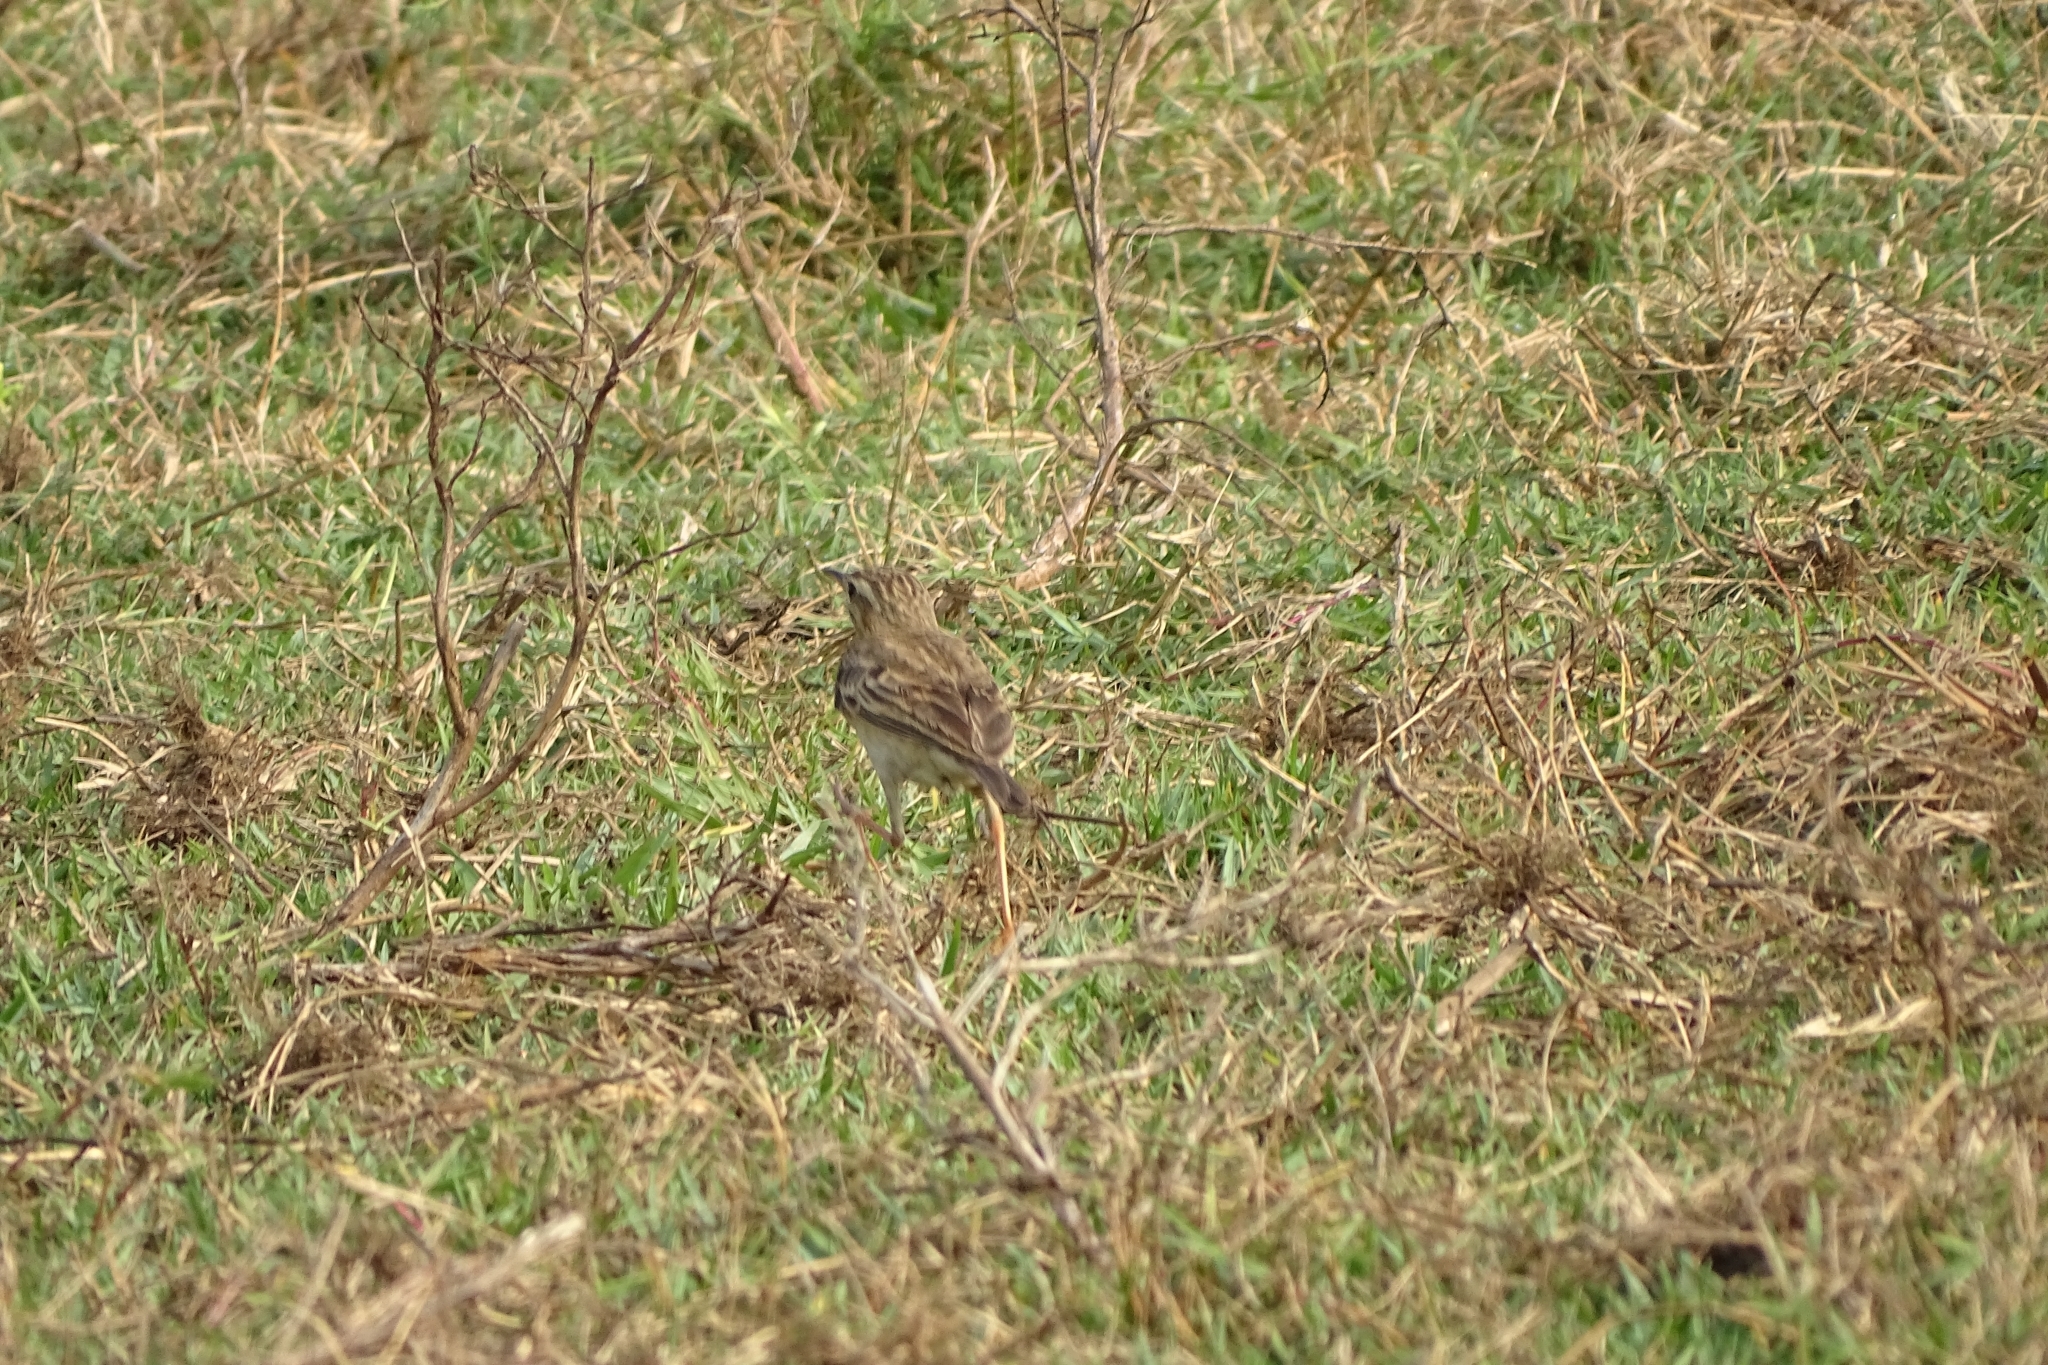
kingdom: Animalia
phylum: Chordata
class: Aves
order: Passeriformes
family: Motacillidae
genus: Anthus
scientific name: Anthus rufulus
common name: Paddyfield pipit
